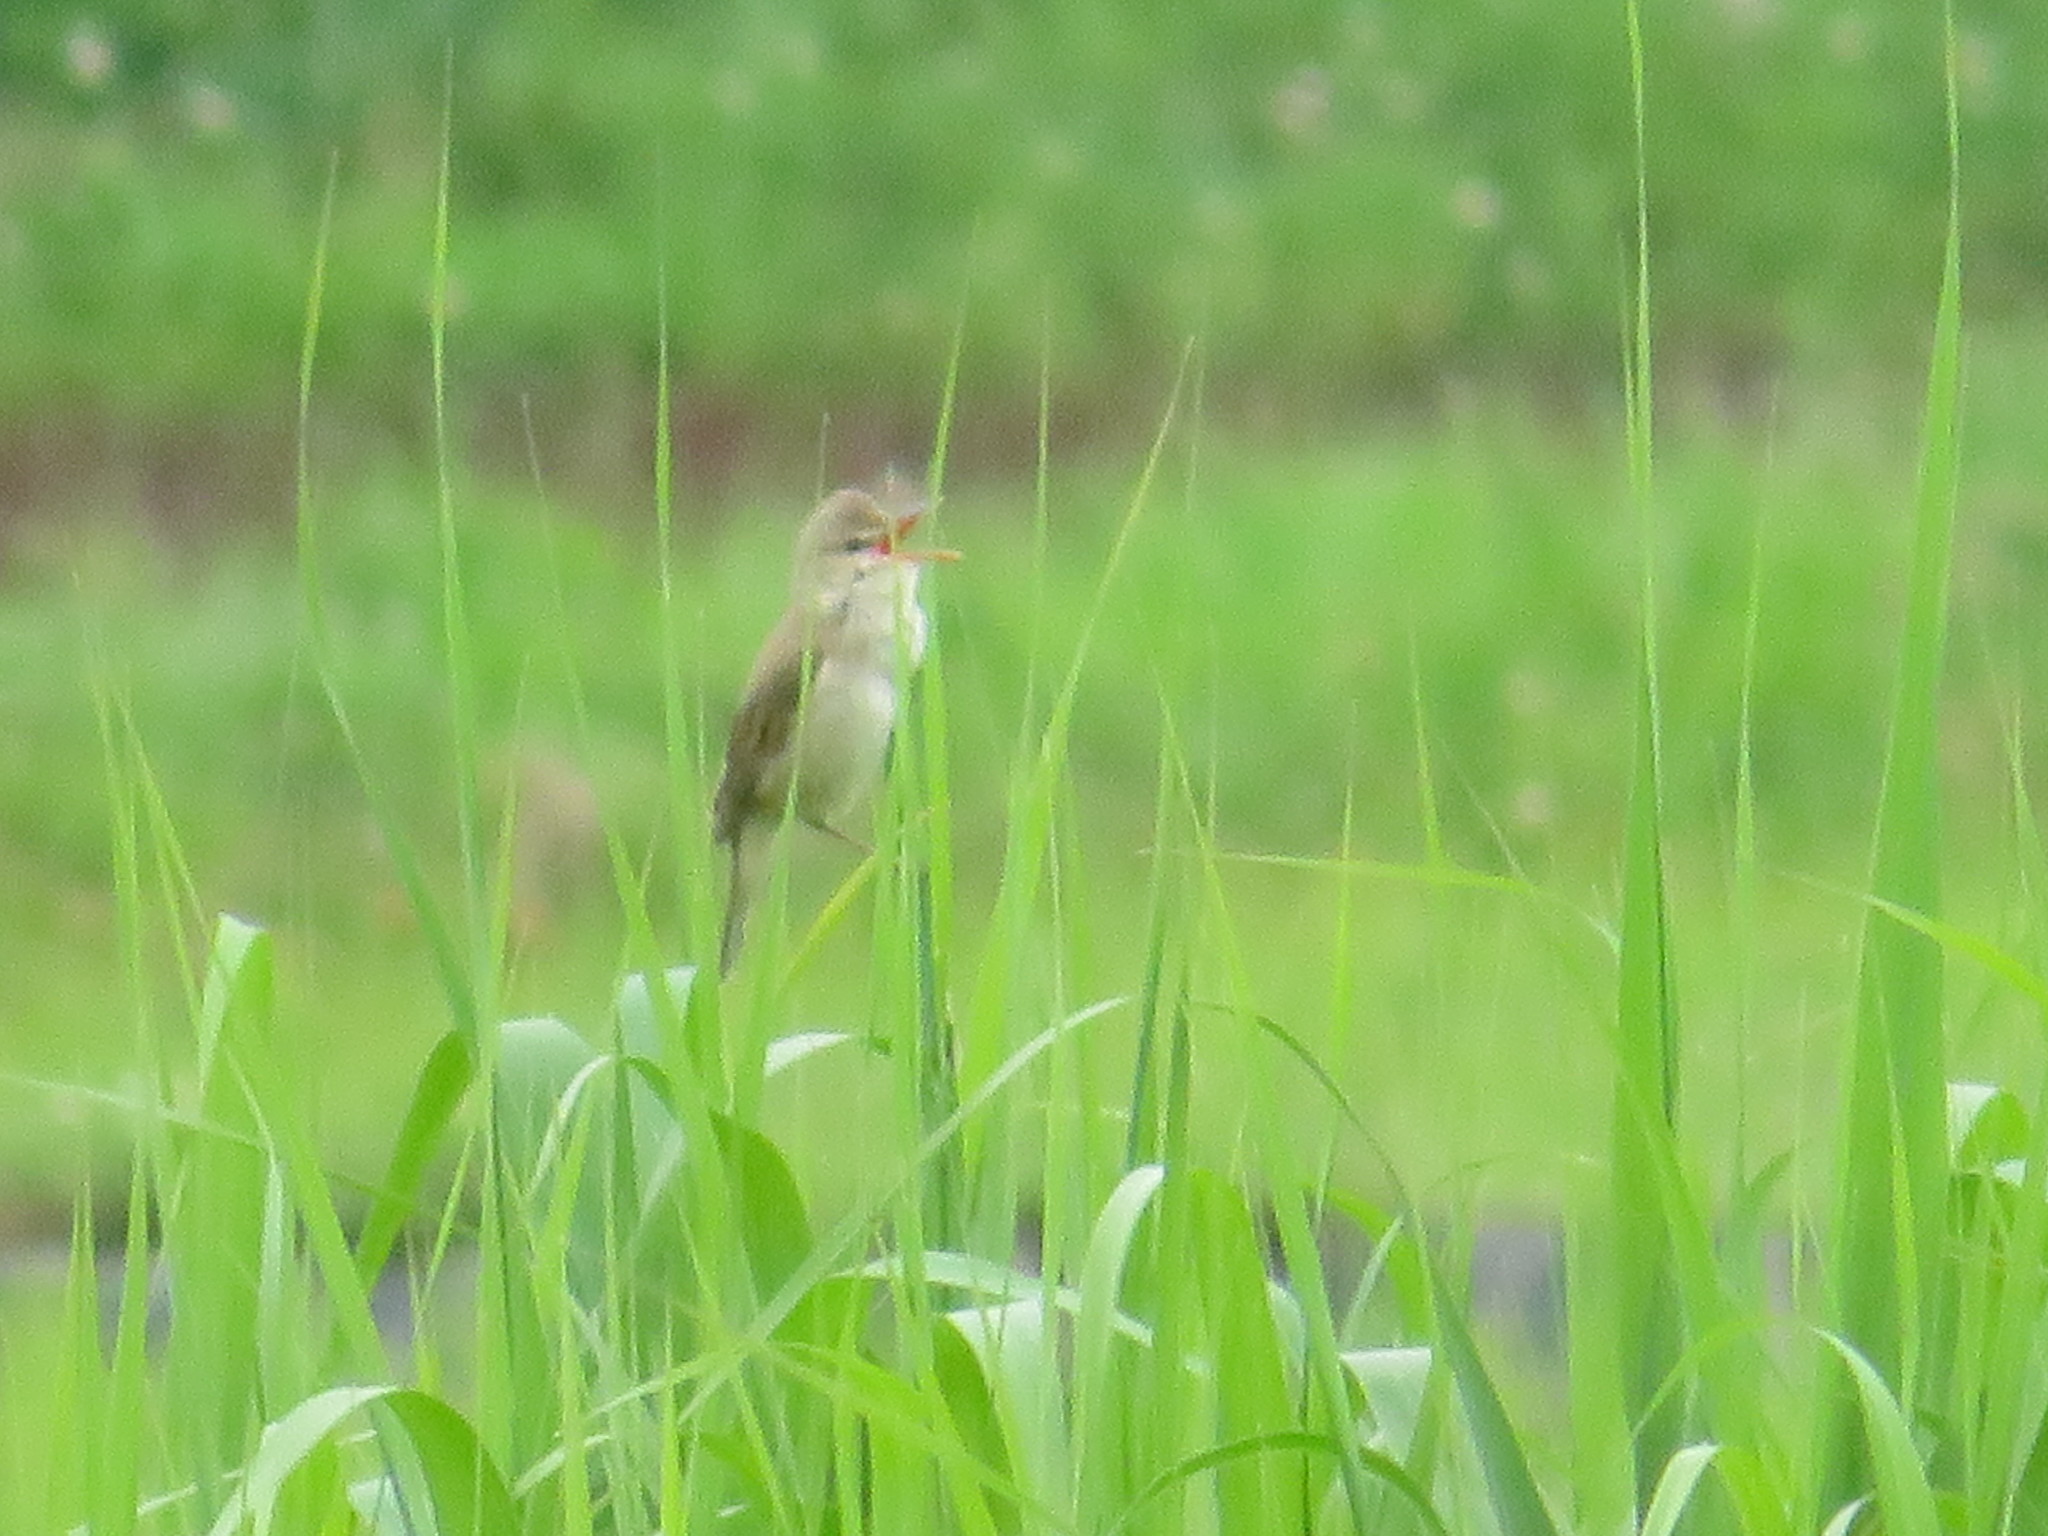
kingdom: Animalia
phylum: Chordata
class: Aves
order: Passeriformes
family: Acrocephalidae
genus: Acrocephalus
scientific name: Acrocephalus orientalis
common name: Oriental reed warbler
